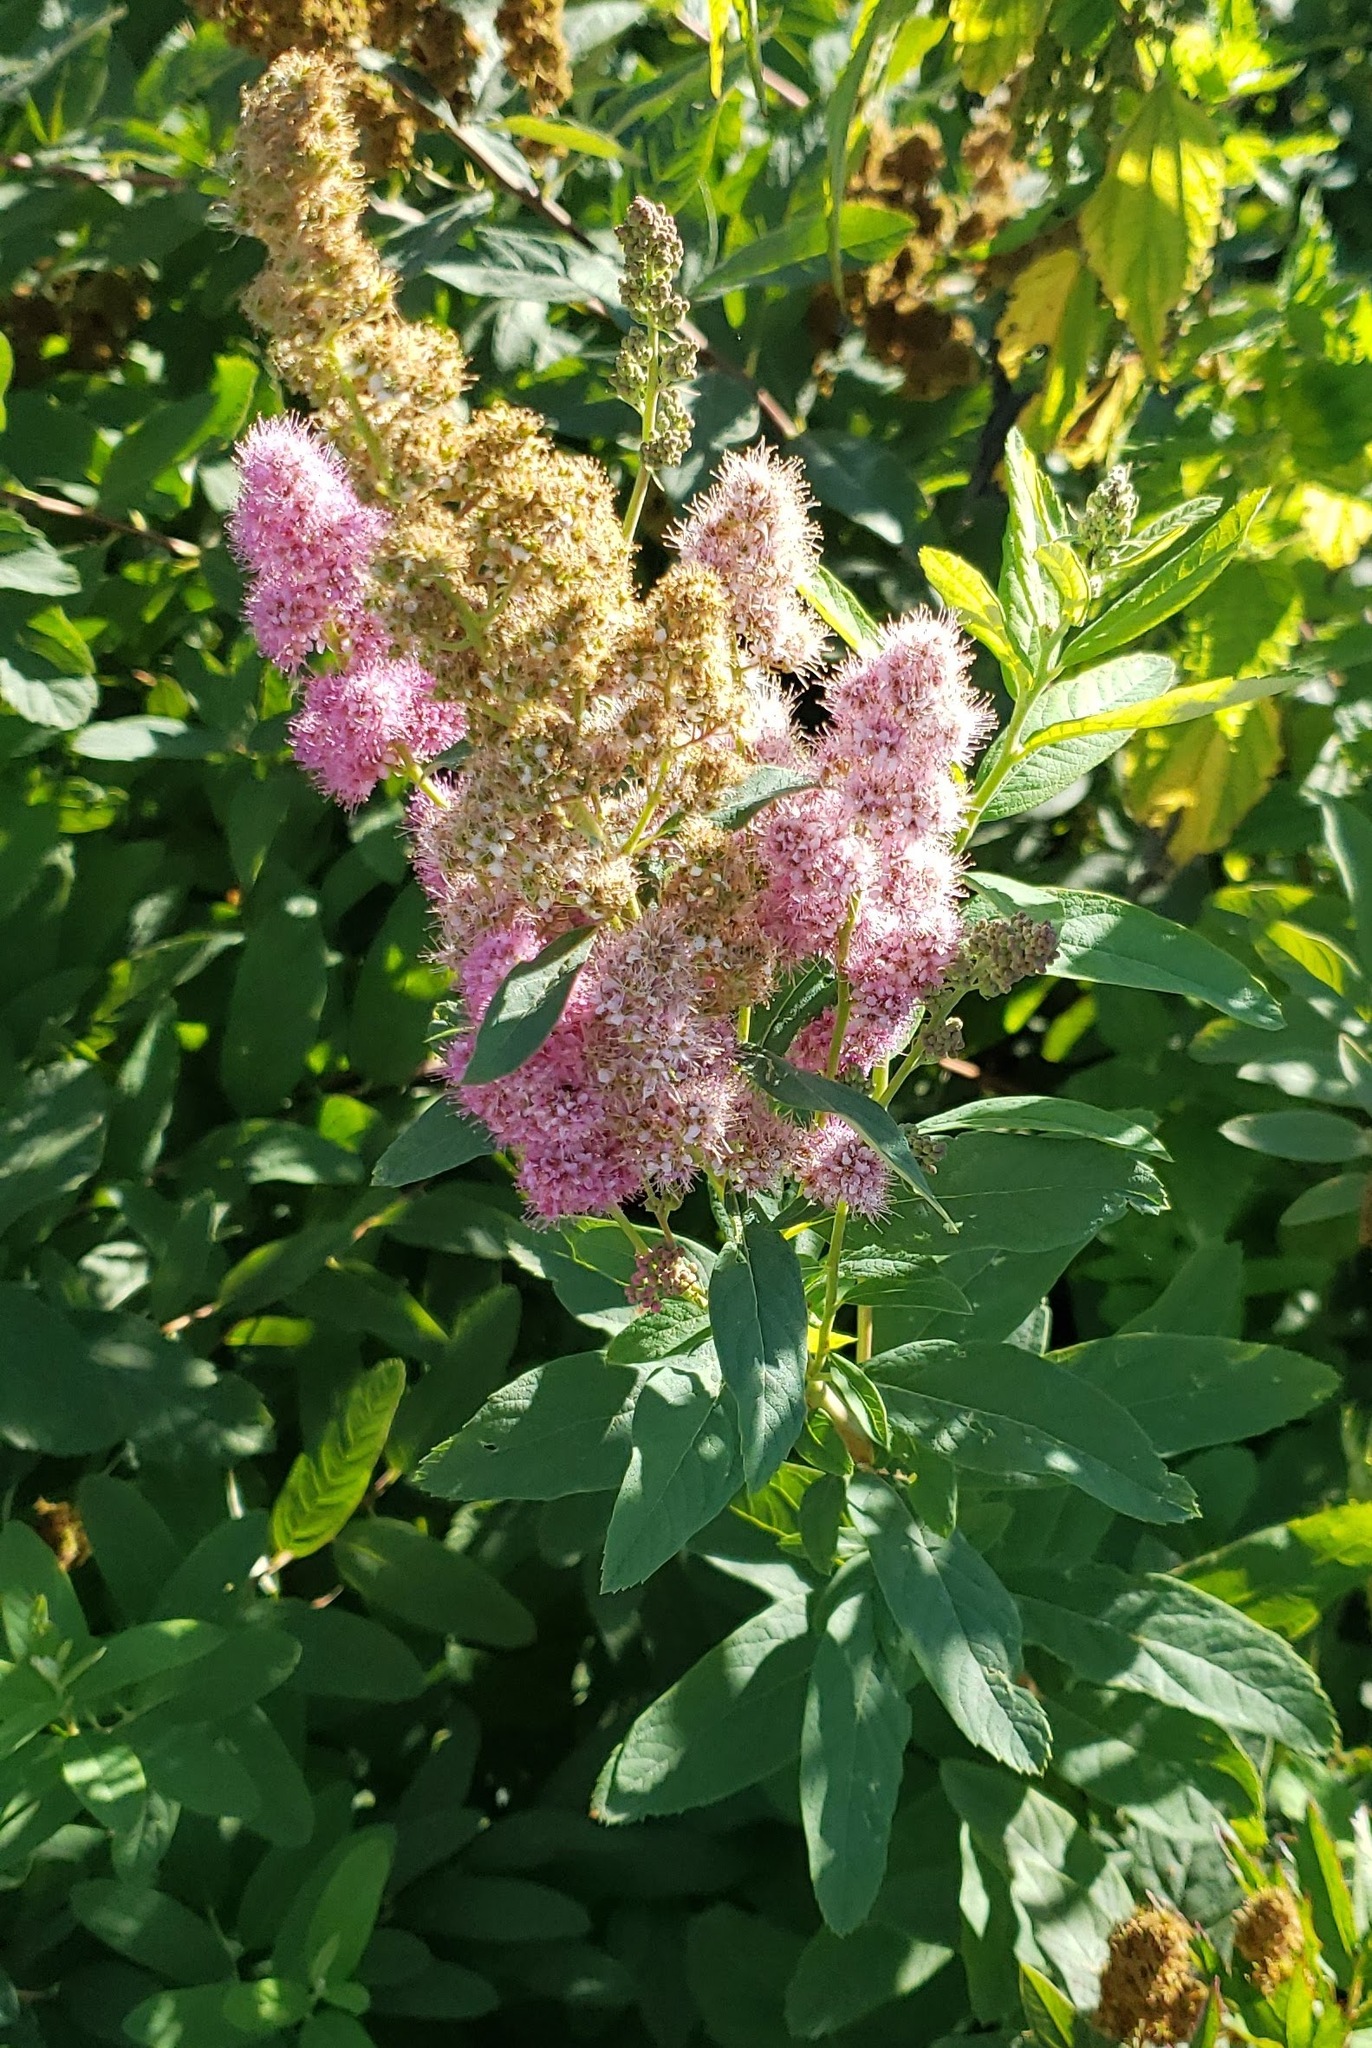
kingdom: Plantae
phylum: Tracheophyta
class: Magnoliopsida
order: Rosales
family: Rosaceae
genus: Spiraea
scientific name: Spiraea douglasii
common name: Steeplebush
